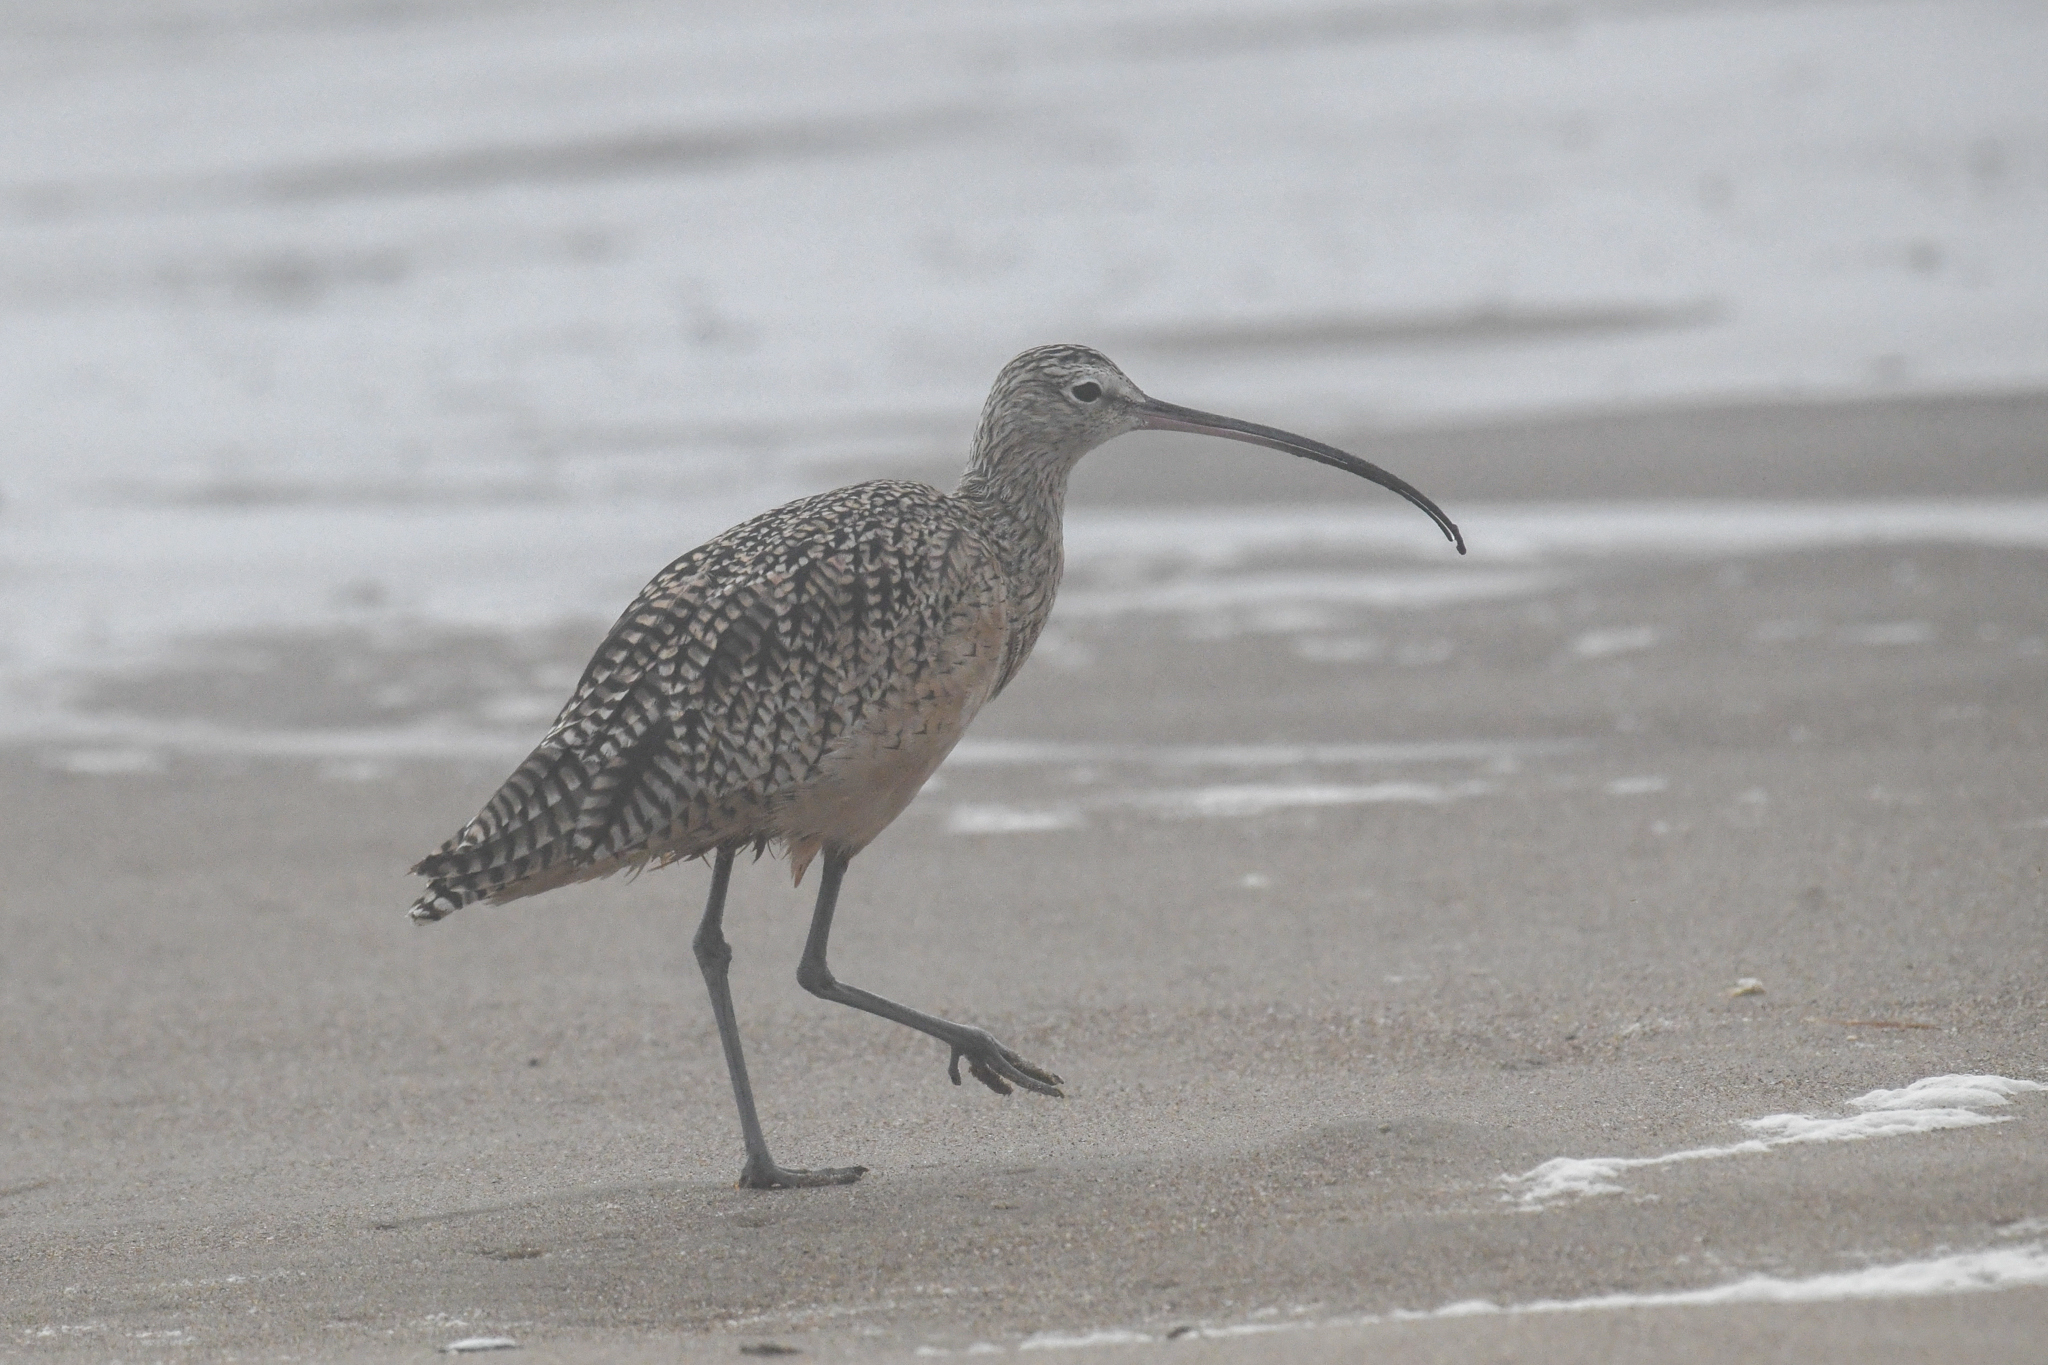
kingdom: Animalia
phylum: Chordata
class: Aves
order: Charadriiformes
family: Scolopacidae
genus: Numenius
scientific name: Numenius americanus
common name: Long-billed curlew
